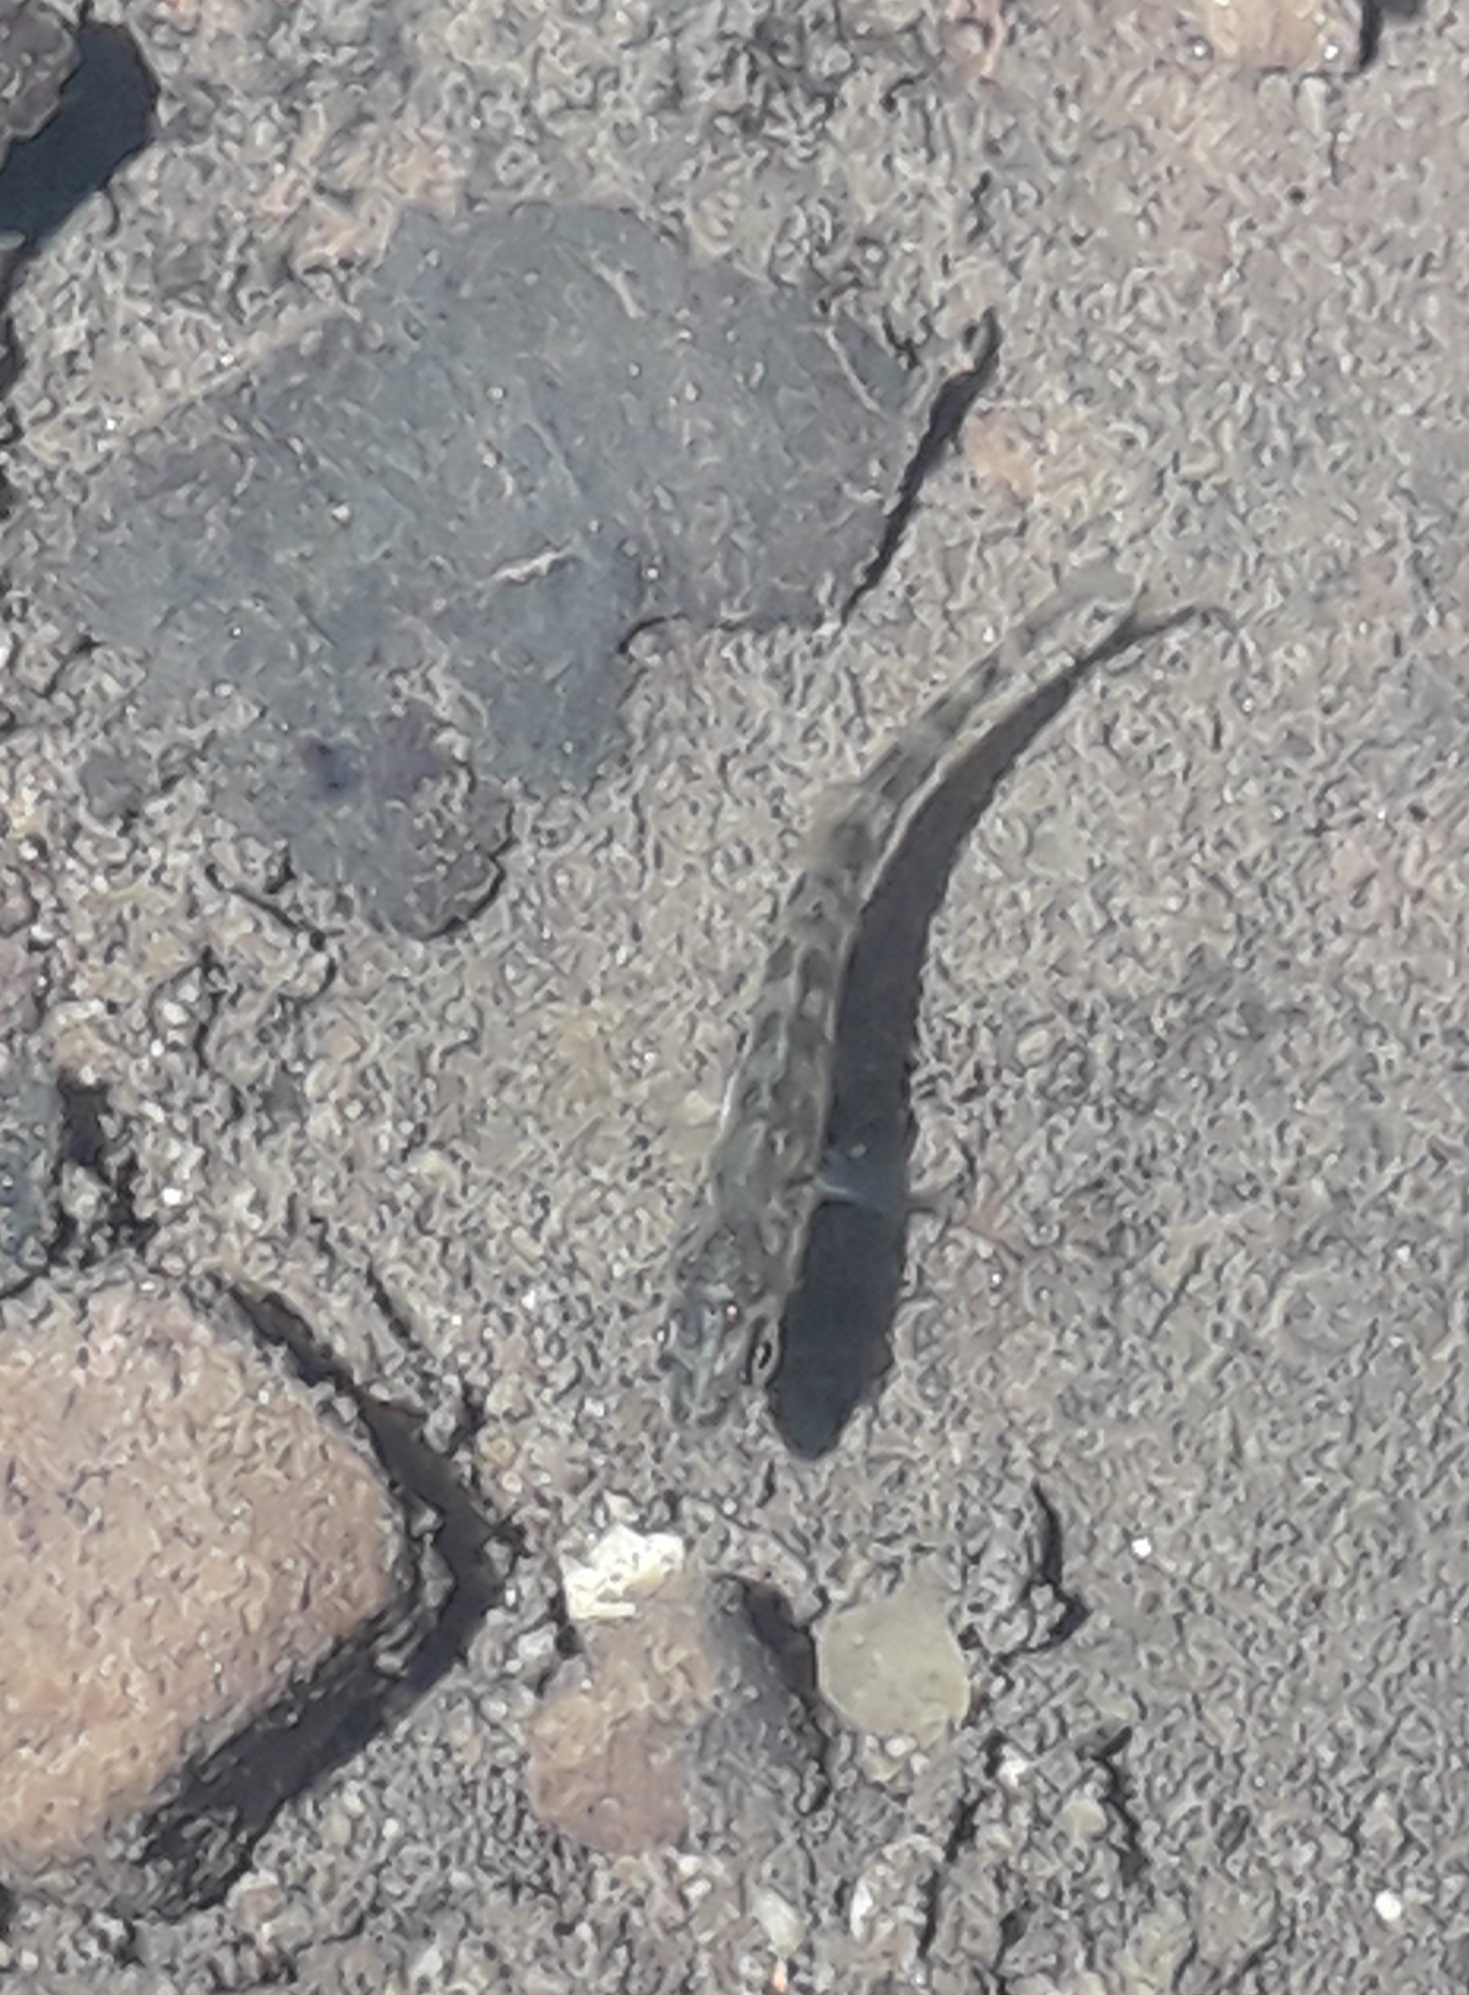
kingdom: Animalia
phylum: Chordata
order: Gasterosteiformes
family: Gasterosteidae
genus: Gasterosteus
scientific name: Gasterosteus aculeatus
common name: Three-spined stickleback
